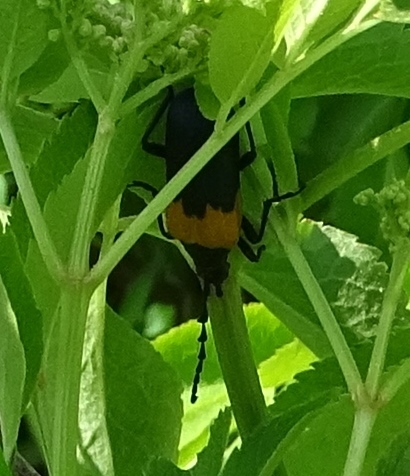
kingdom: Animalia
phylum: Arthropoda
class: Insecta
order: Coleoptera
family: Cerambycidae
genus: Desmocerus
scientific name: Desmocerus palliatus
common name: Eastern elderberry borer
